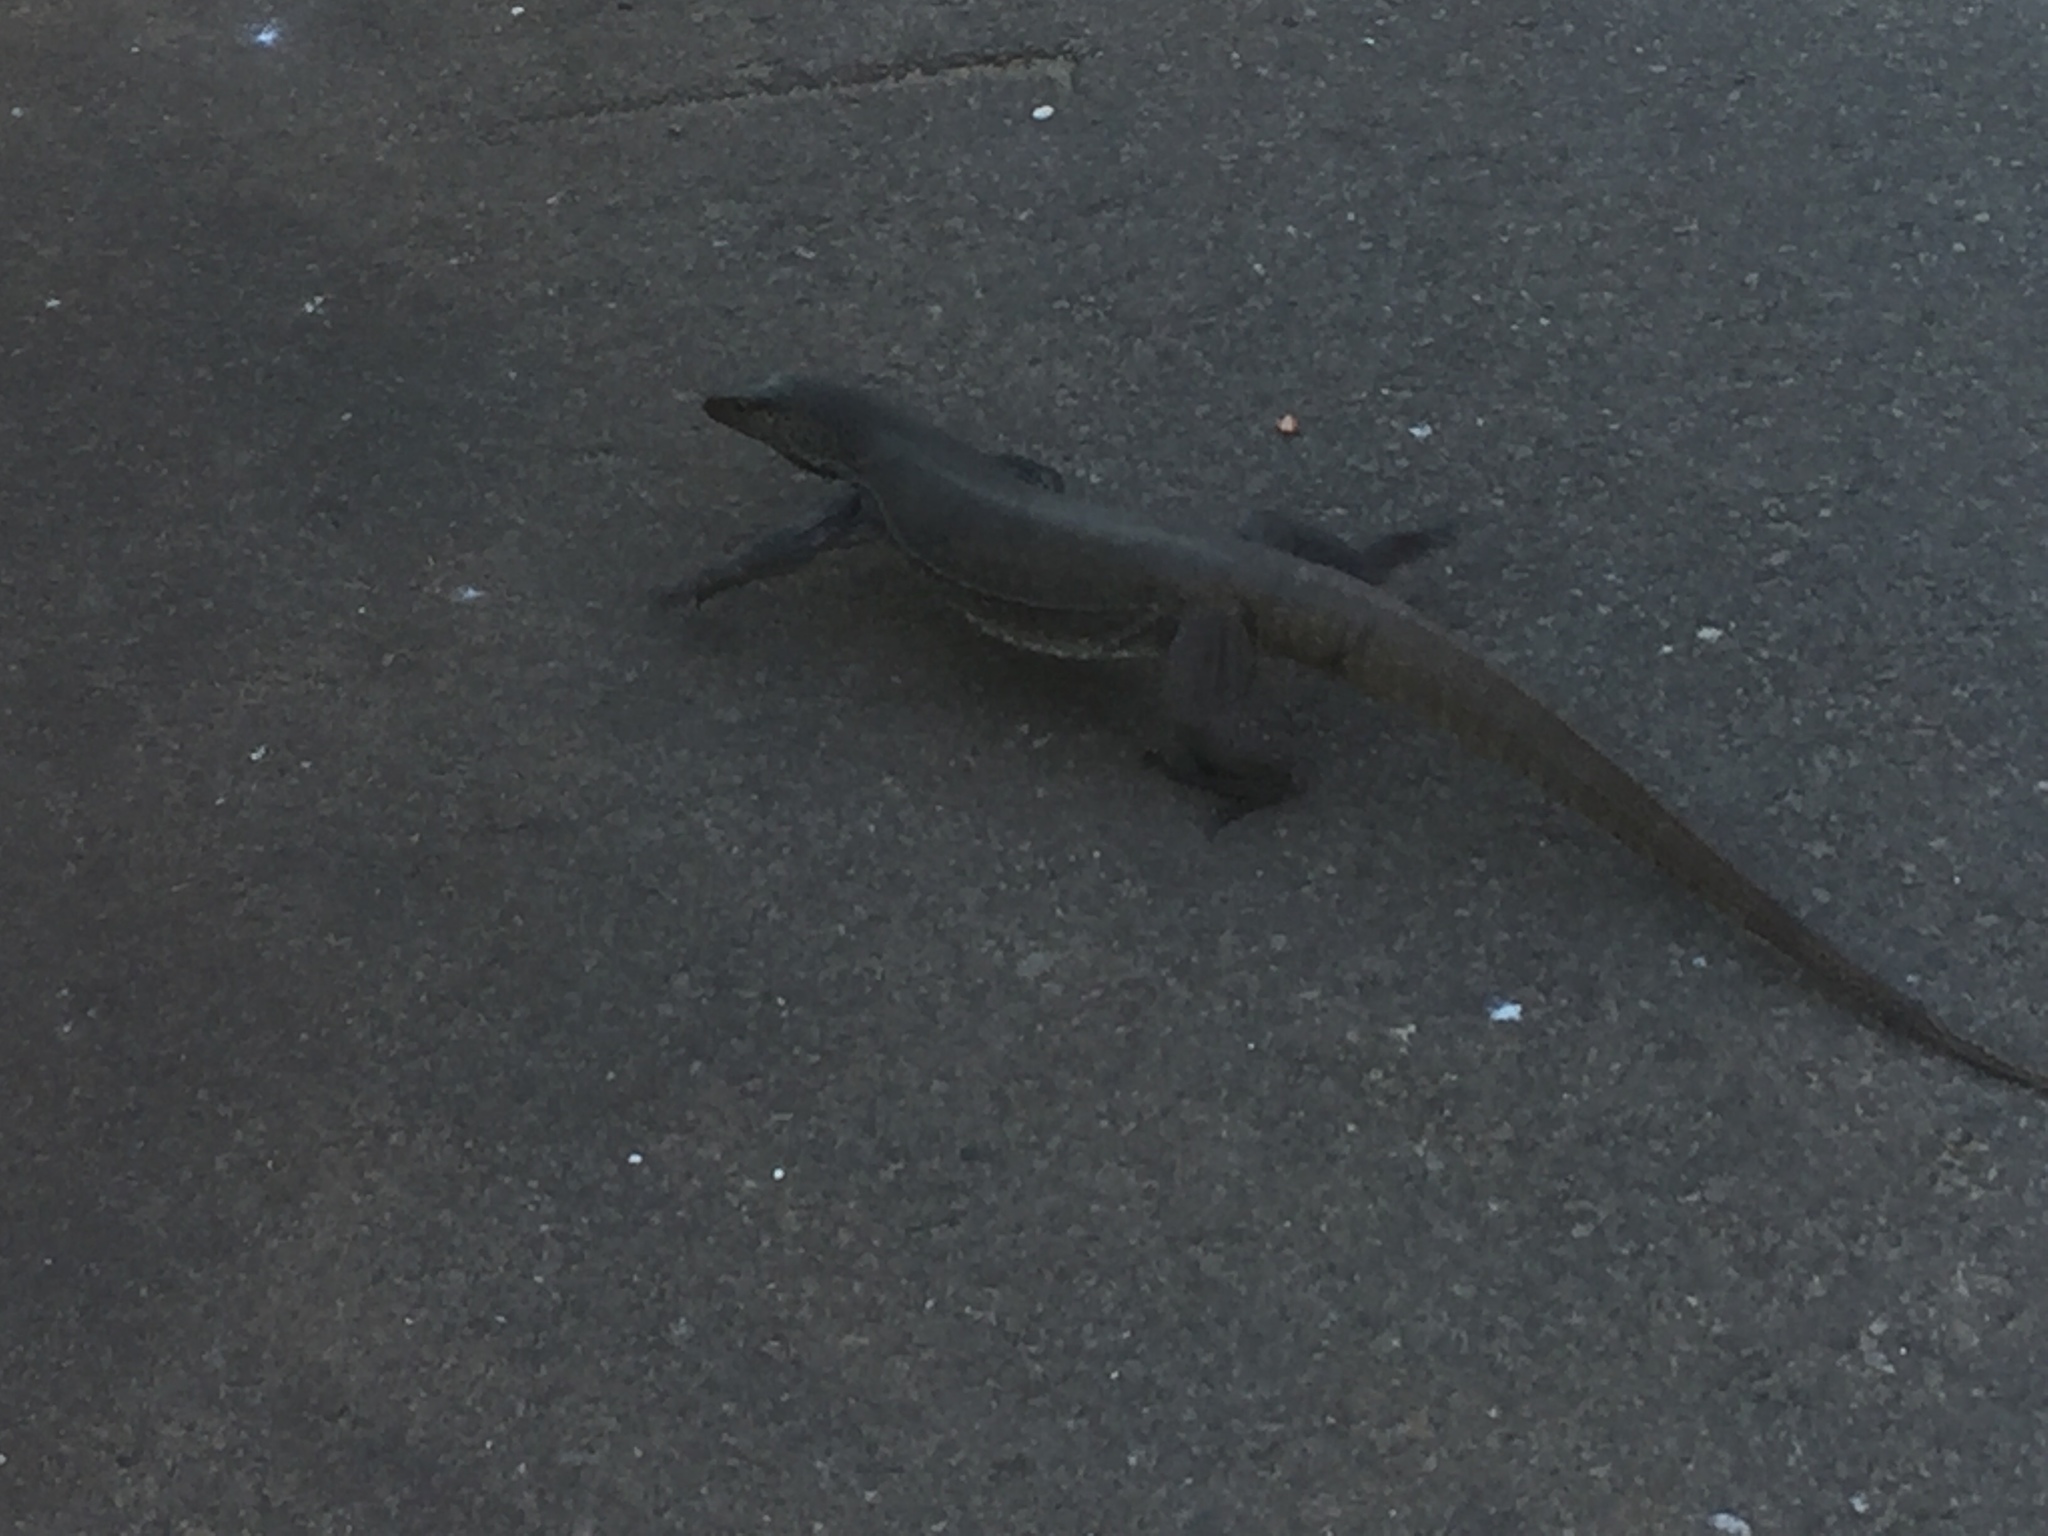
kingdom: Animalia
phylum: Chordata
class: Squamata
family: Varanidae
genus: Varanus
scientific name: Varanus bengalensis
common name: Bengal monitor
